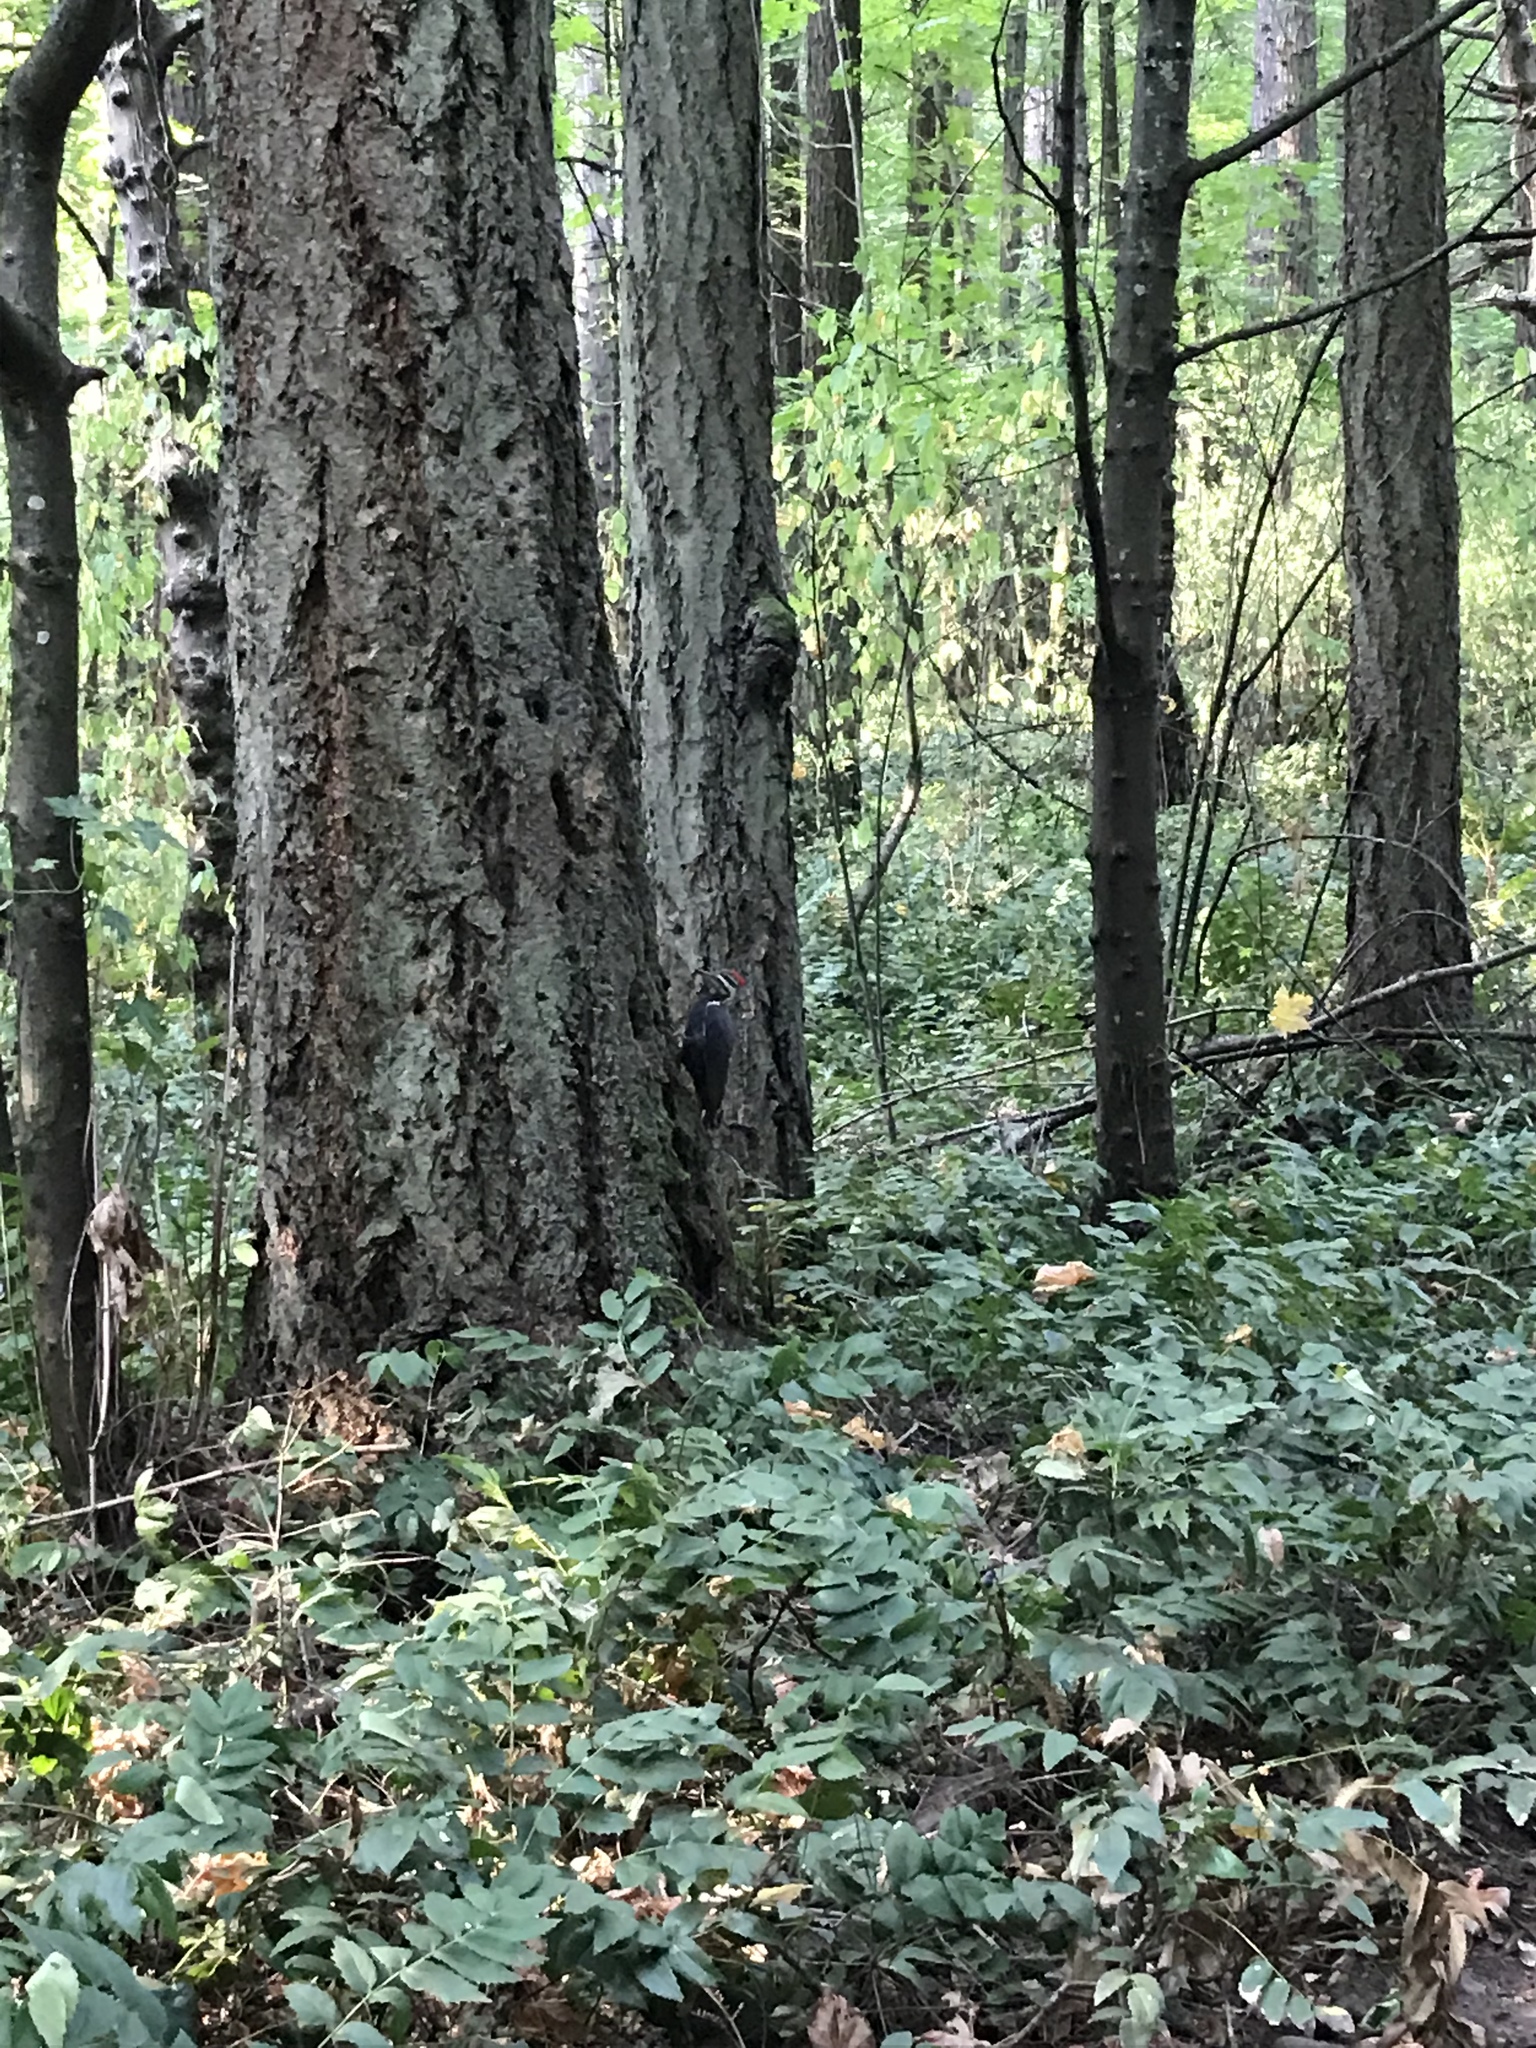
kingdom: Animalia
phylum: Chordata
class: Aves
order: Piciformes
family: Picidae
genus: Dryocopus
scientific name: Dryocopus pileatus
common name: Pileated woodpecker
